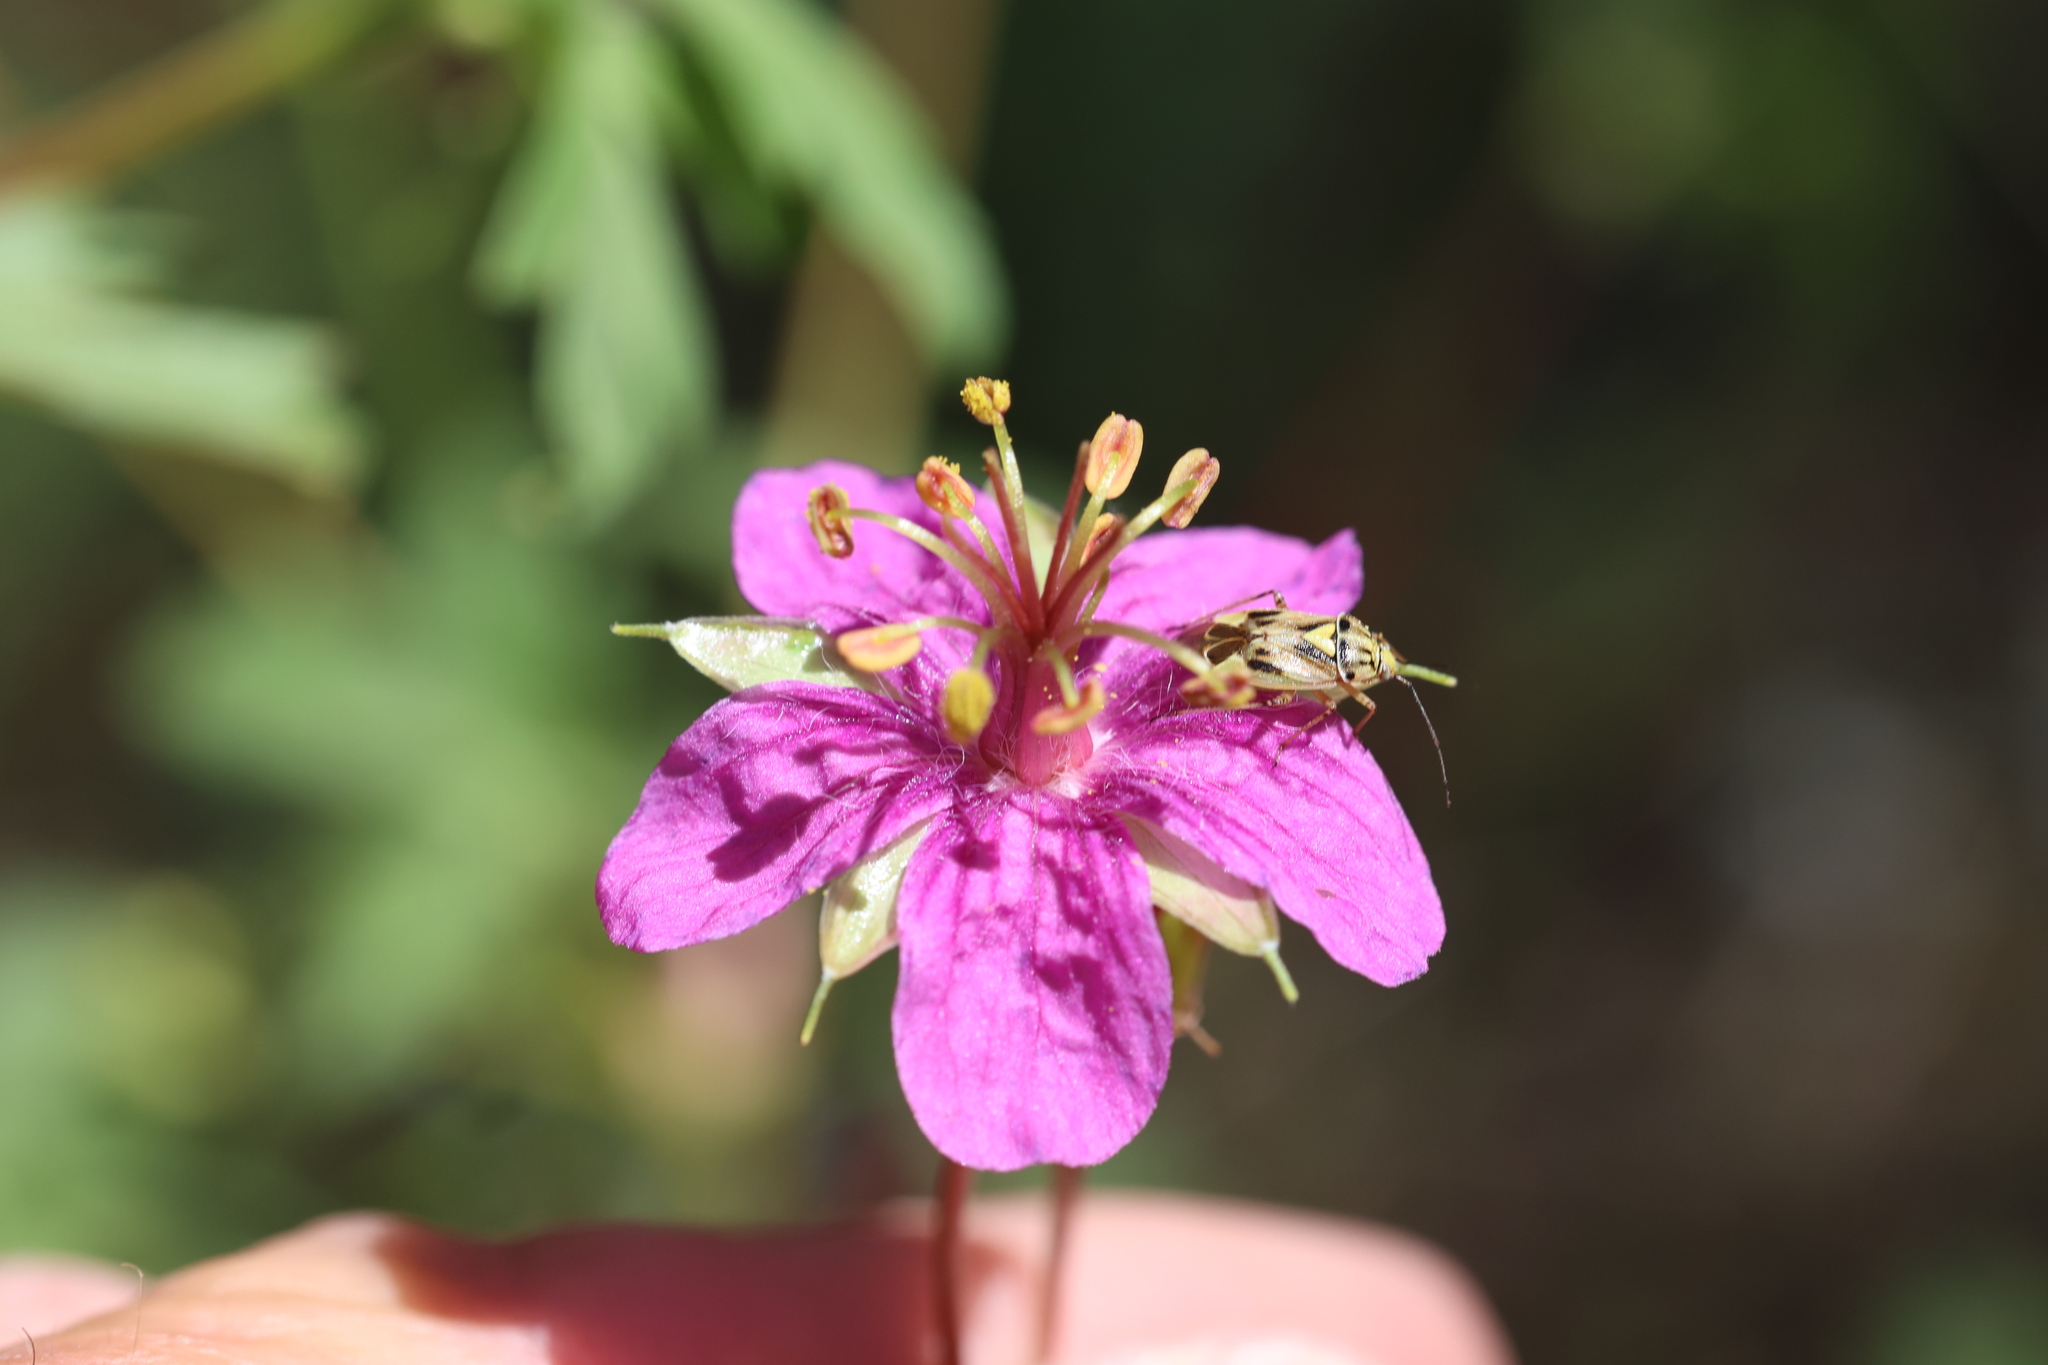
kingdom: Plantae
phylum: Tracheophyta
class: Magnoliopsida
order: Geraniales
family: Geraniaceae
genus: Geranium
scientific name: Geranium caespitosum
